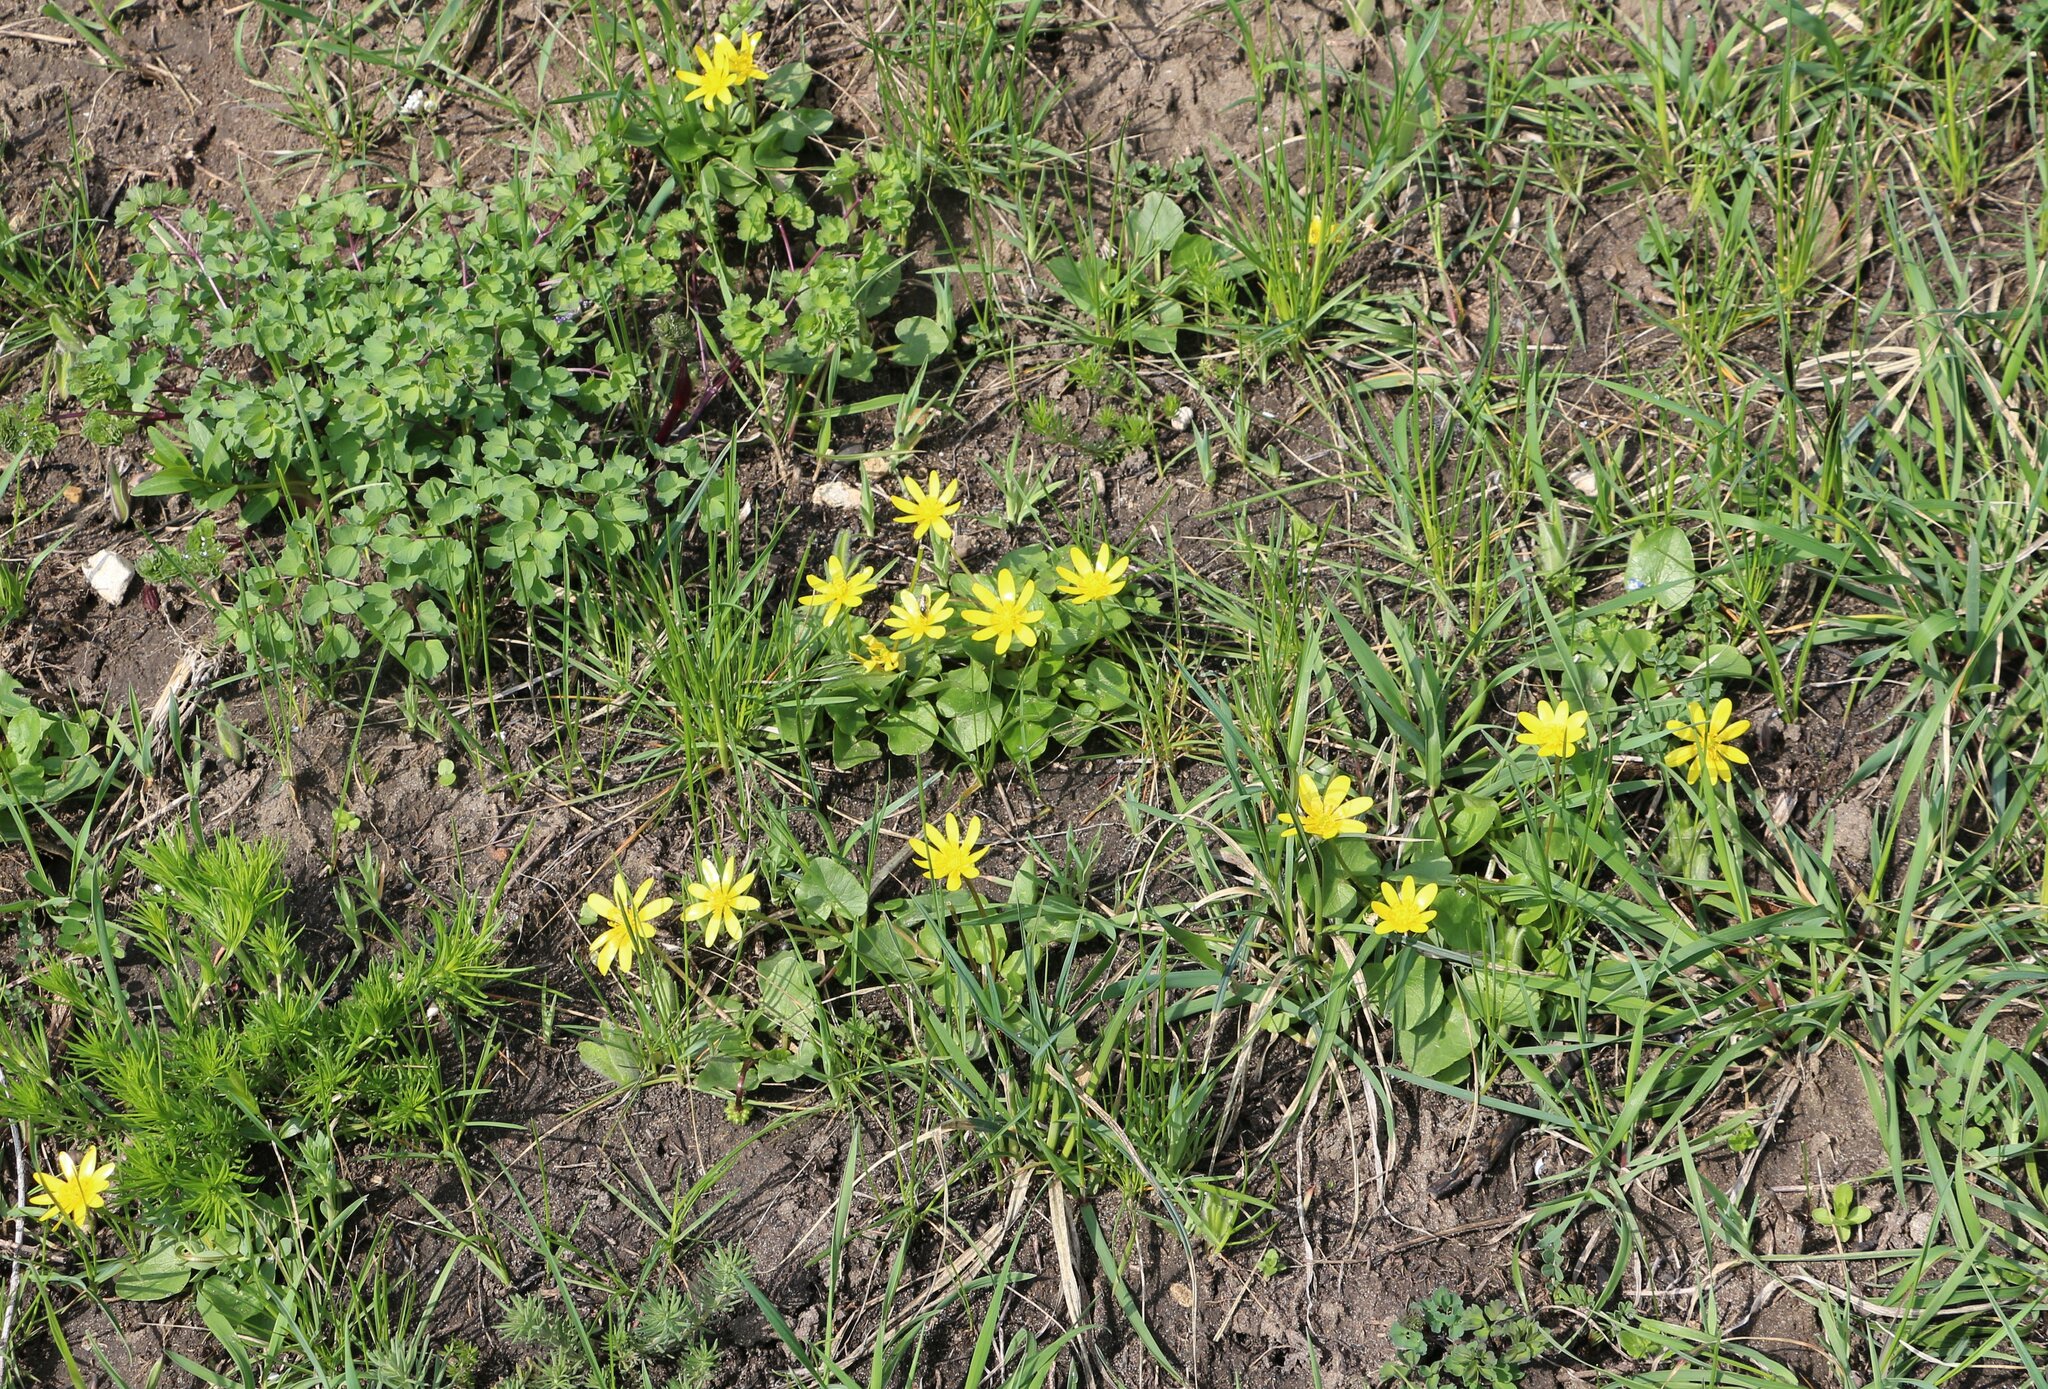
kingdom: Plantae
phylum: Tracheophyta
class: Magnoliopsida
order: Ranunculales
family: Ranunculaceae
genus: Ficaria
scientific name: Ficaria verna
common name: Lesser celandine
